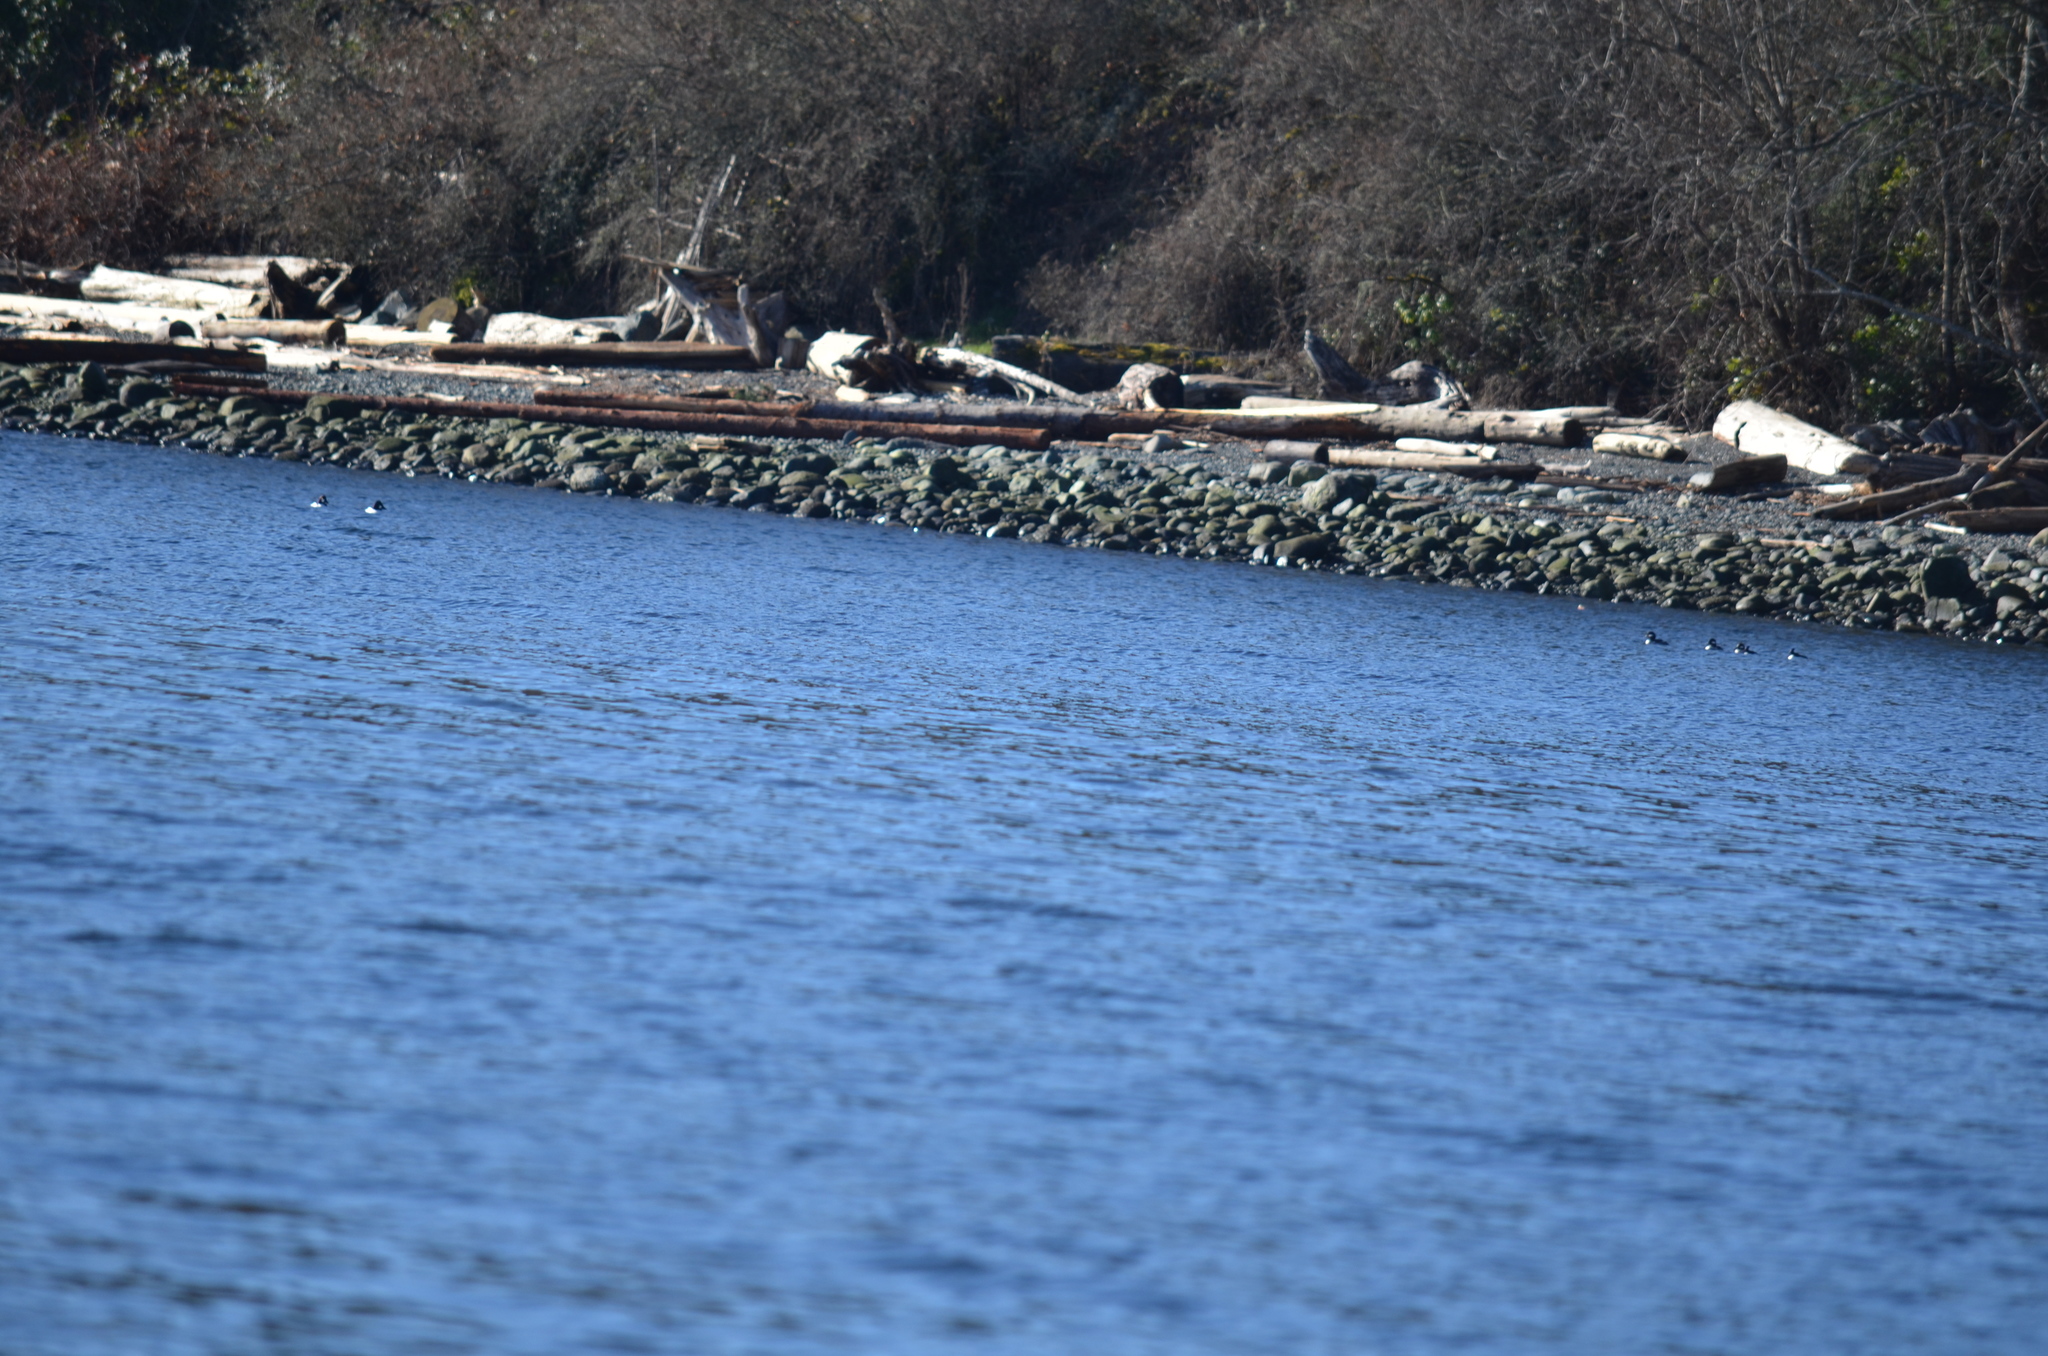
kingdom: Animalia
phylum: Chordata
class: Aves
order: Anseriformes
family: Anatidae
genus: Bucephala
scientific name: Bucephala albeola
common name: Bufflehead
